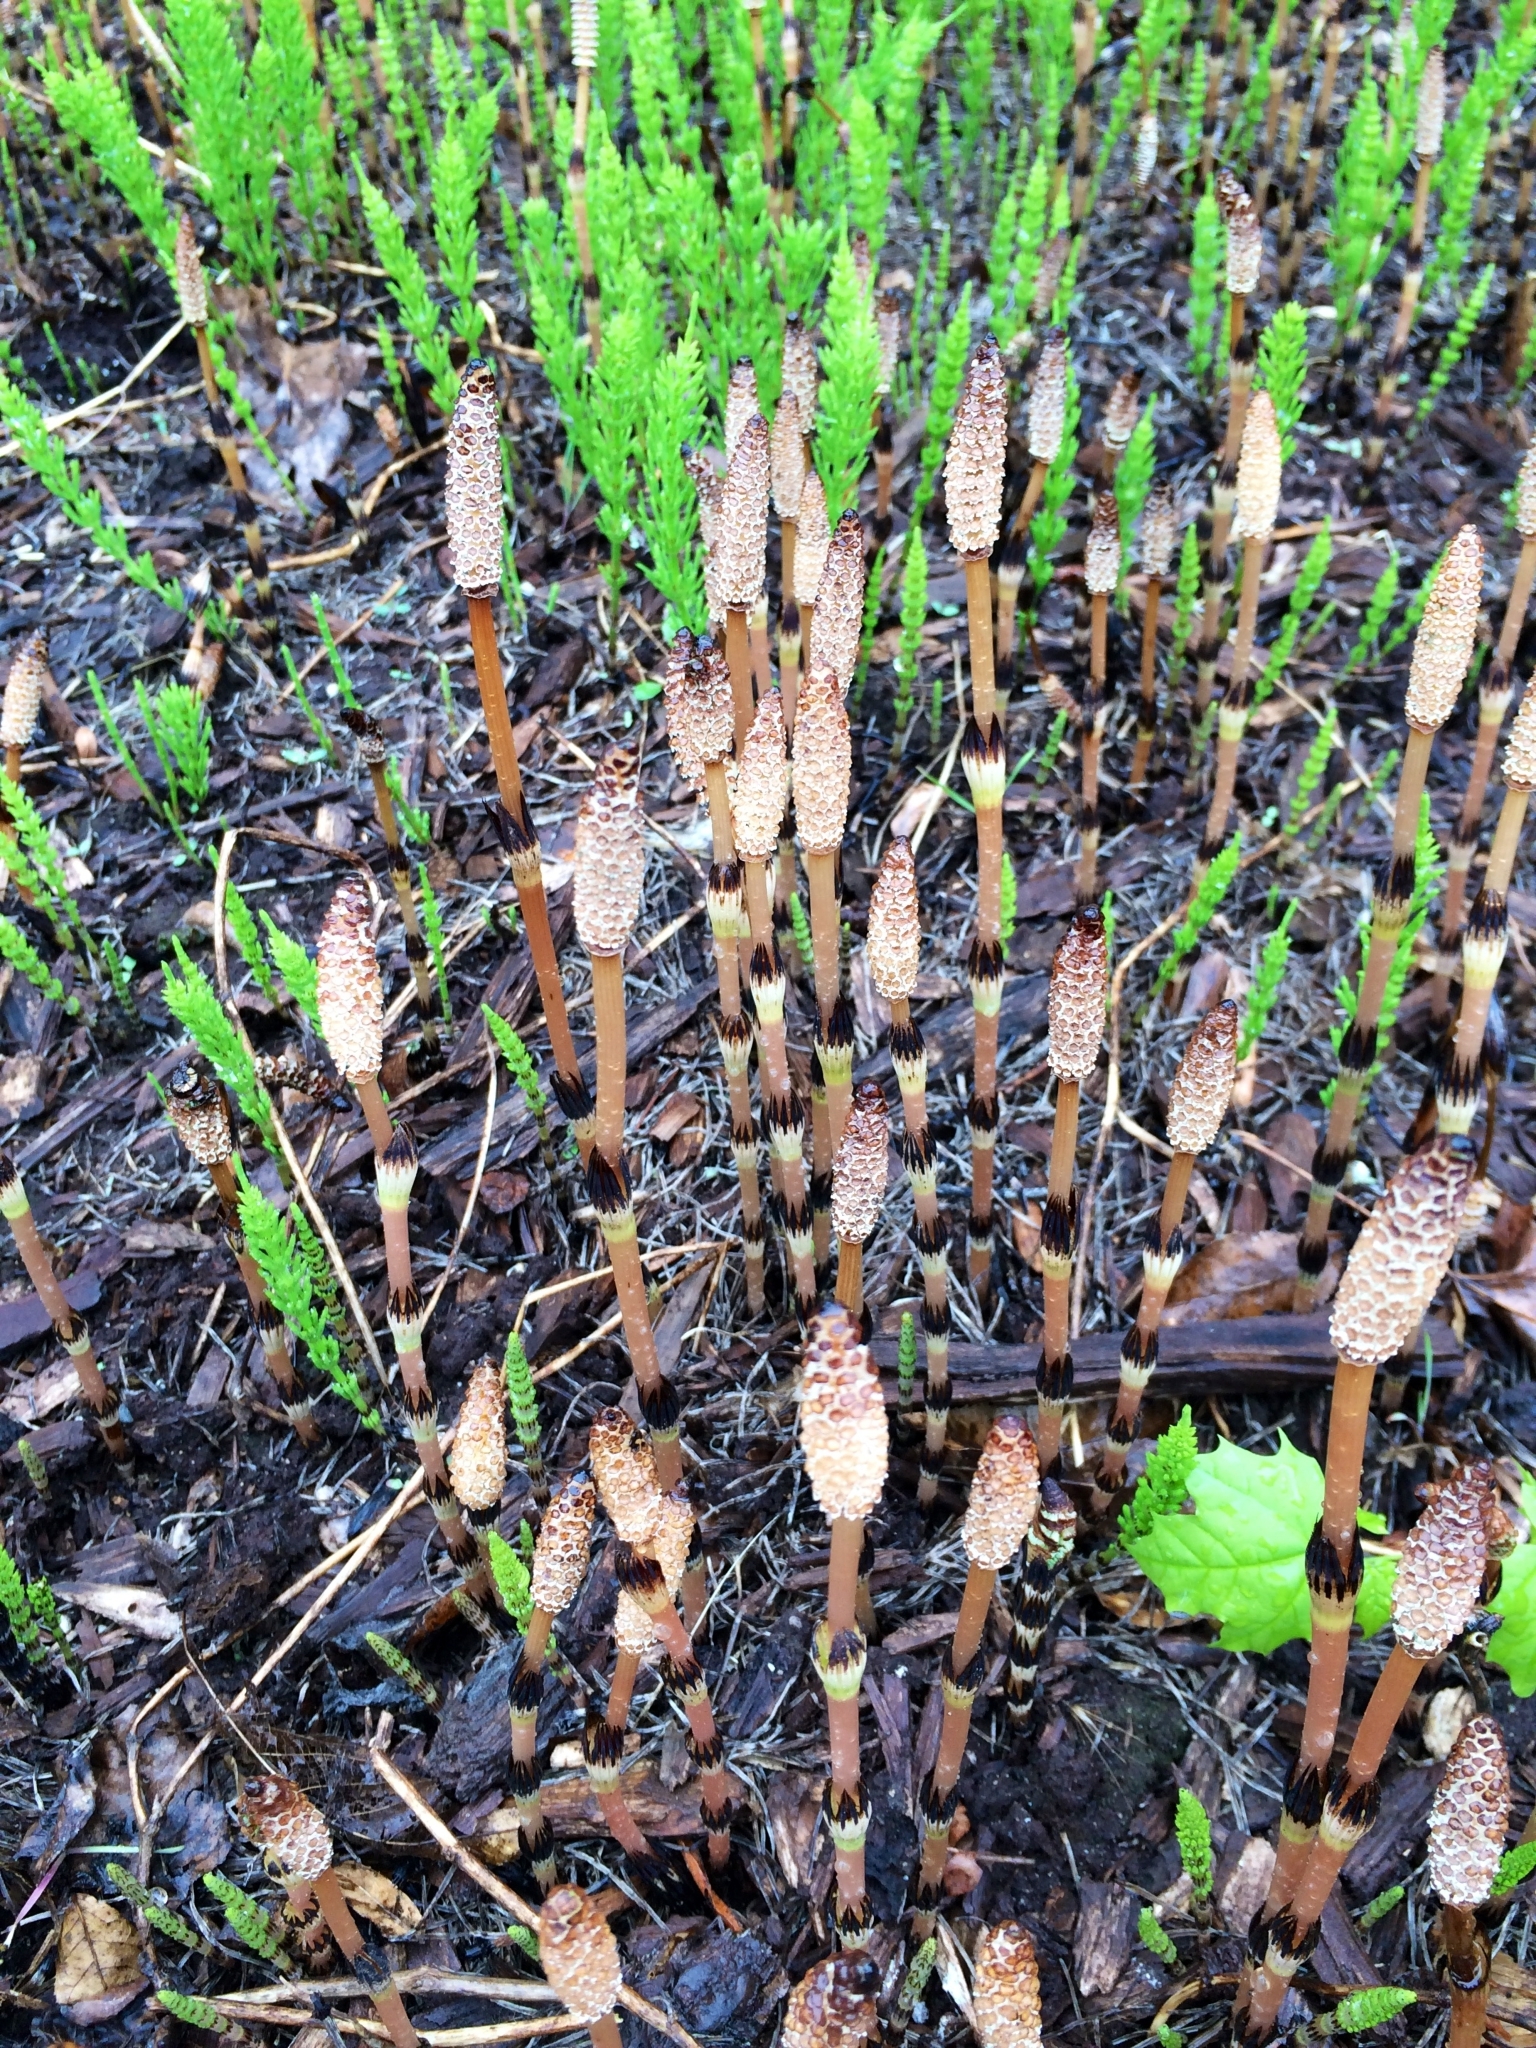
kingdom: Plantae
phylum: Tracheophyta
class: Polypodiopsida
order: Equisetales
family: Equisetaceae
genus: Equisetum
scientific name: Equisetum arvense
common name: Field horsetail
